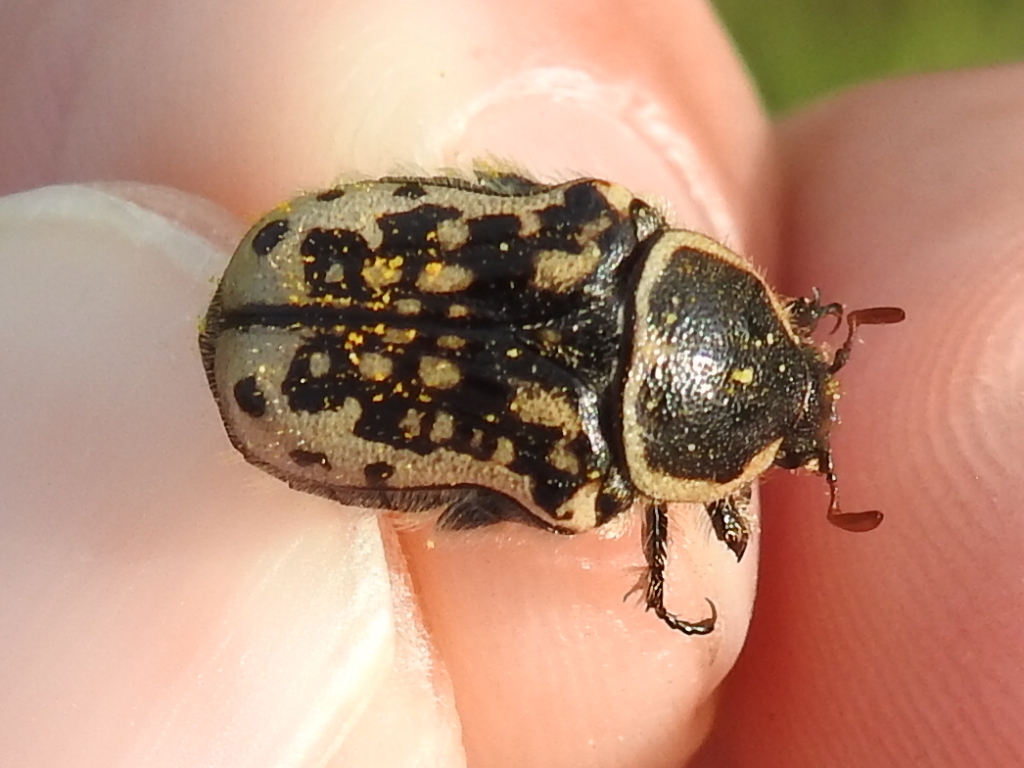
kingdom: Animalia
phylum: Arthropoda
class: Insecta
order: Coleoptera
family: Scarabaeidae
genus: Euphoria
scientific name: Euphoria kernii
